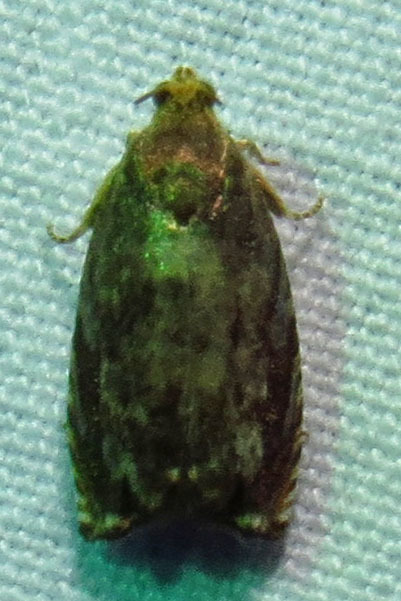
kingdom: Animalia
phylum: Arthropoda
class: Insecta
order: Lepidoptera
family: Tortricidae
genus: Cydia
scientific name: Cydia caryana
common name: Hickory shuckworm moth
